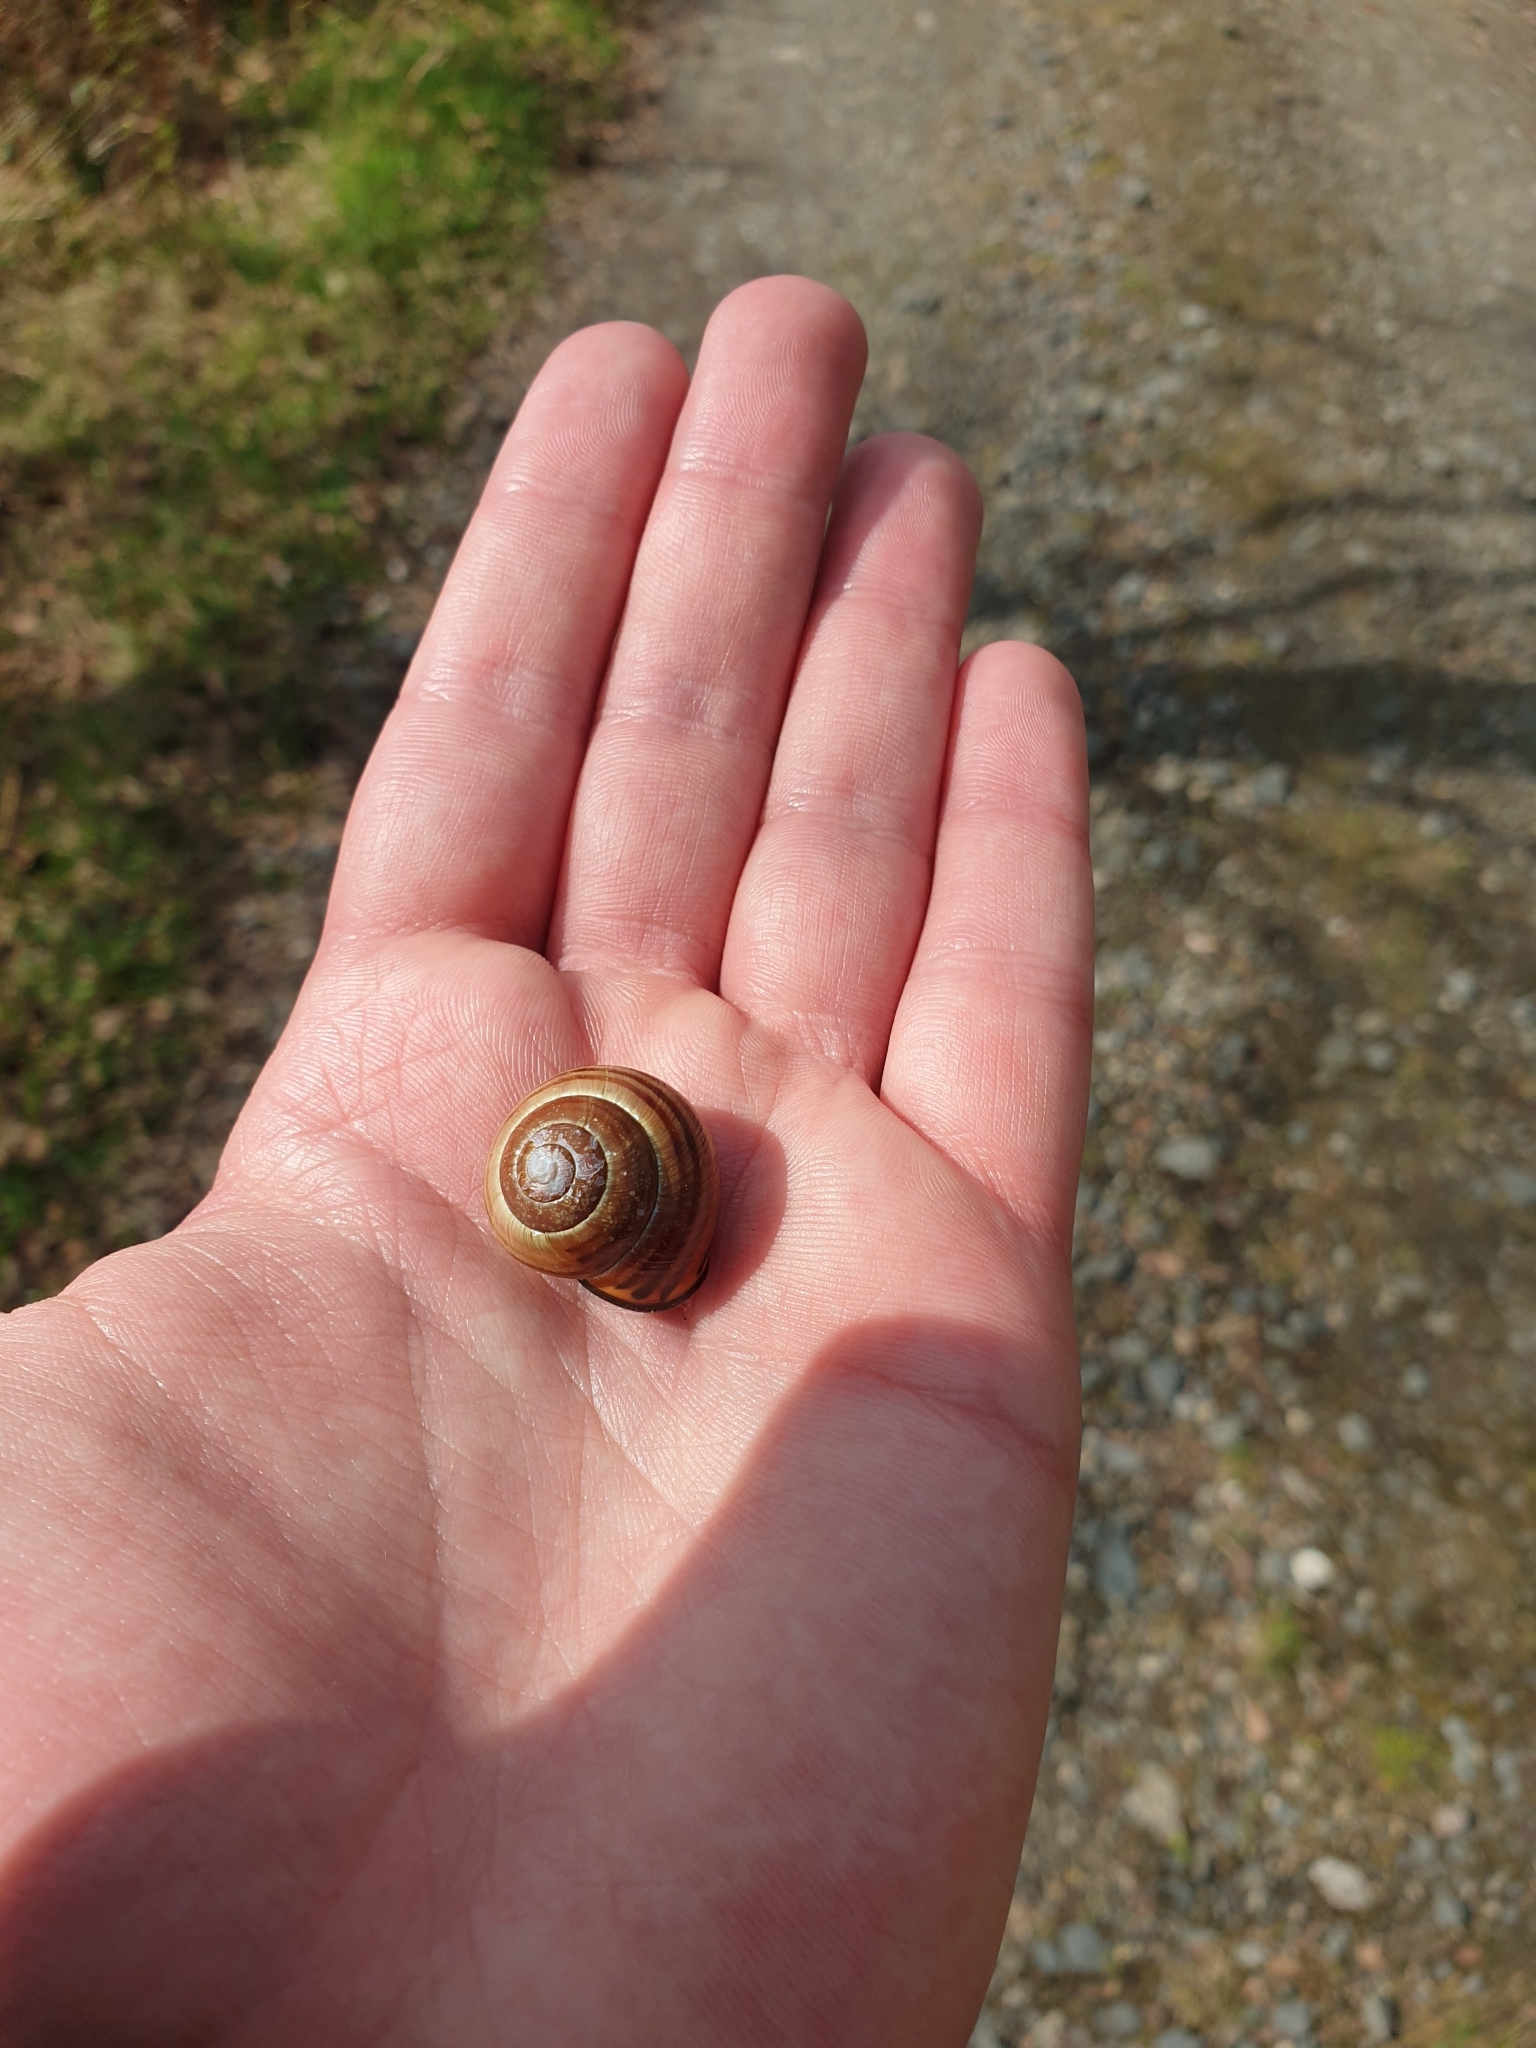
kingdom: Animalia
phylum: Mollusca
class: Gastropoda
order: Stylommatophora
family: Helicidae
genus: Cepaea
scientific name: Cepaea nemoralis
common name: Grovesnail
